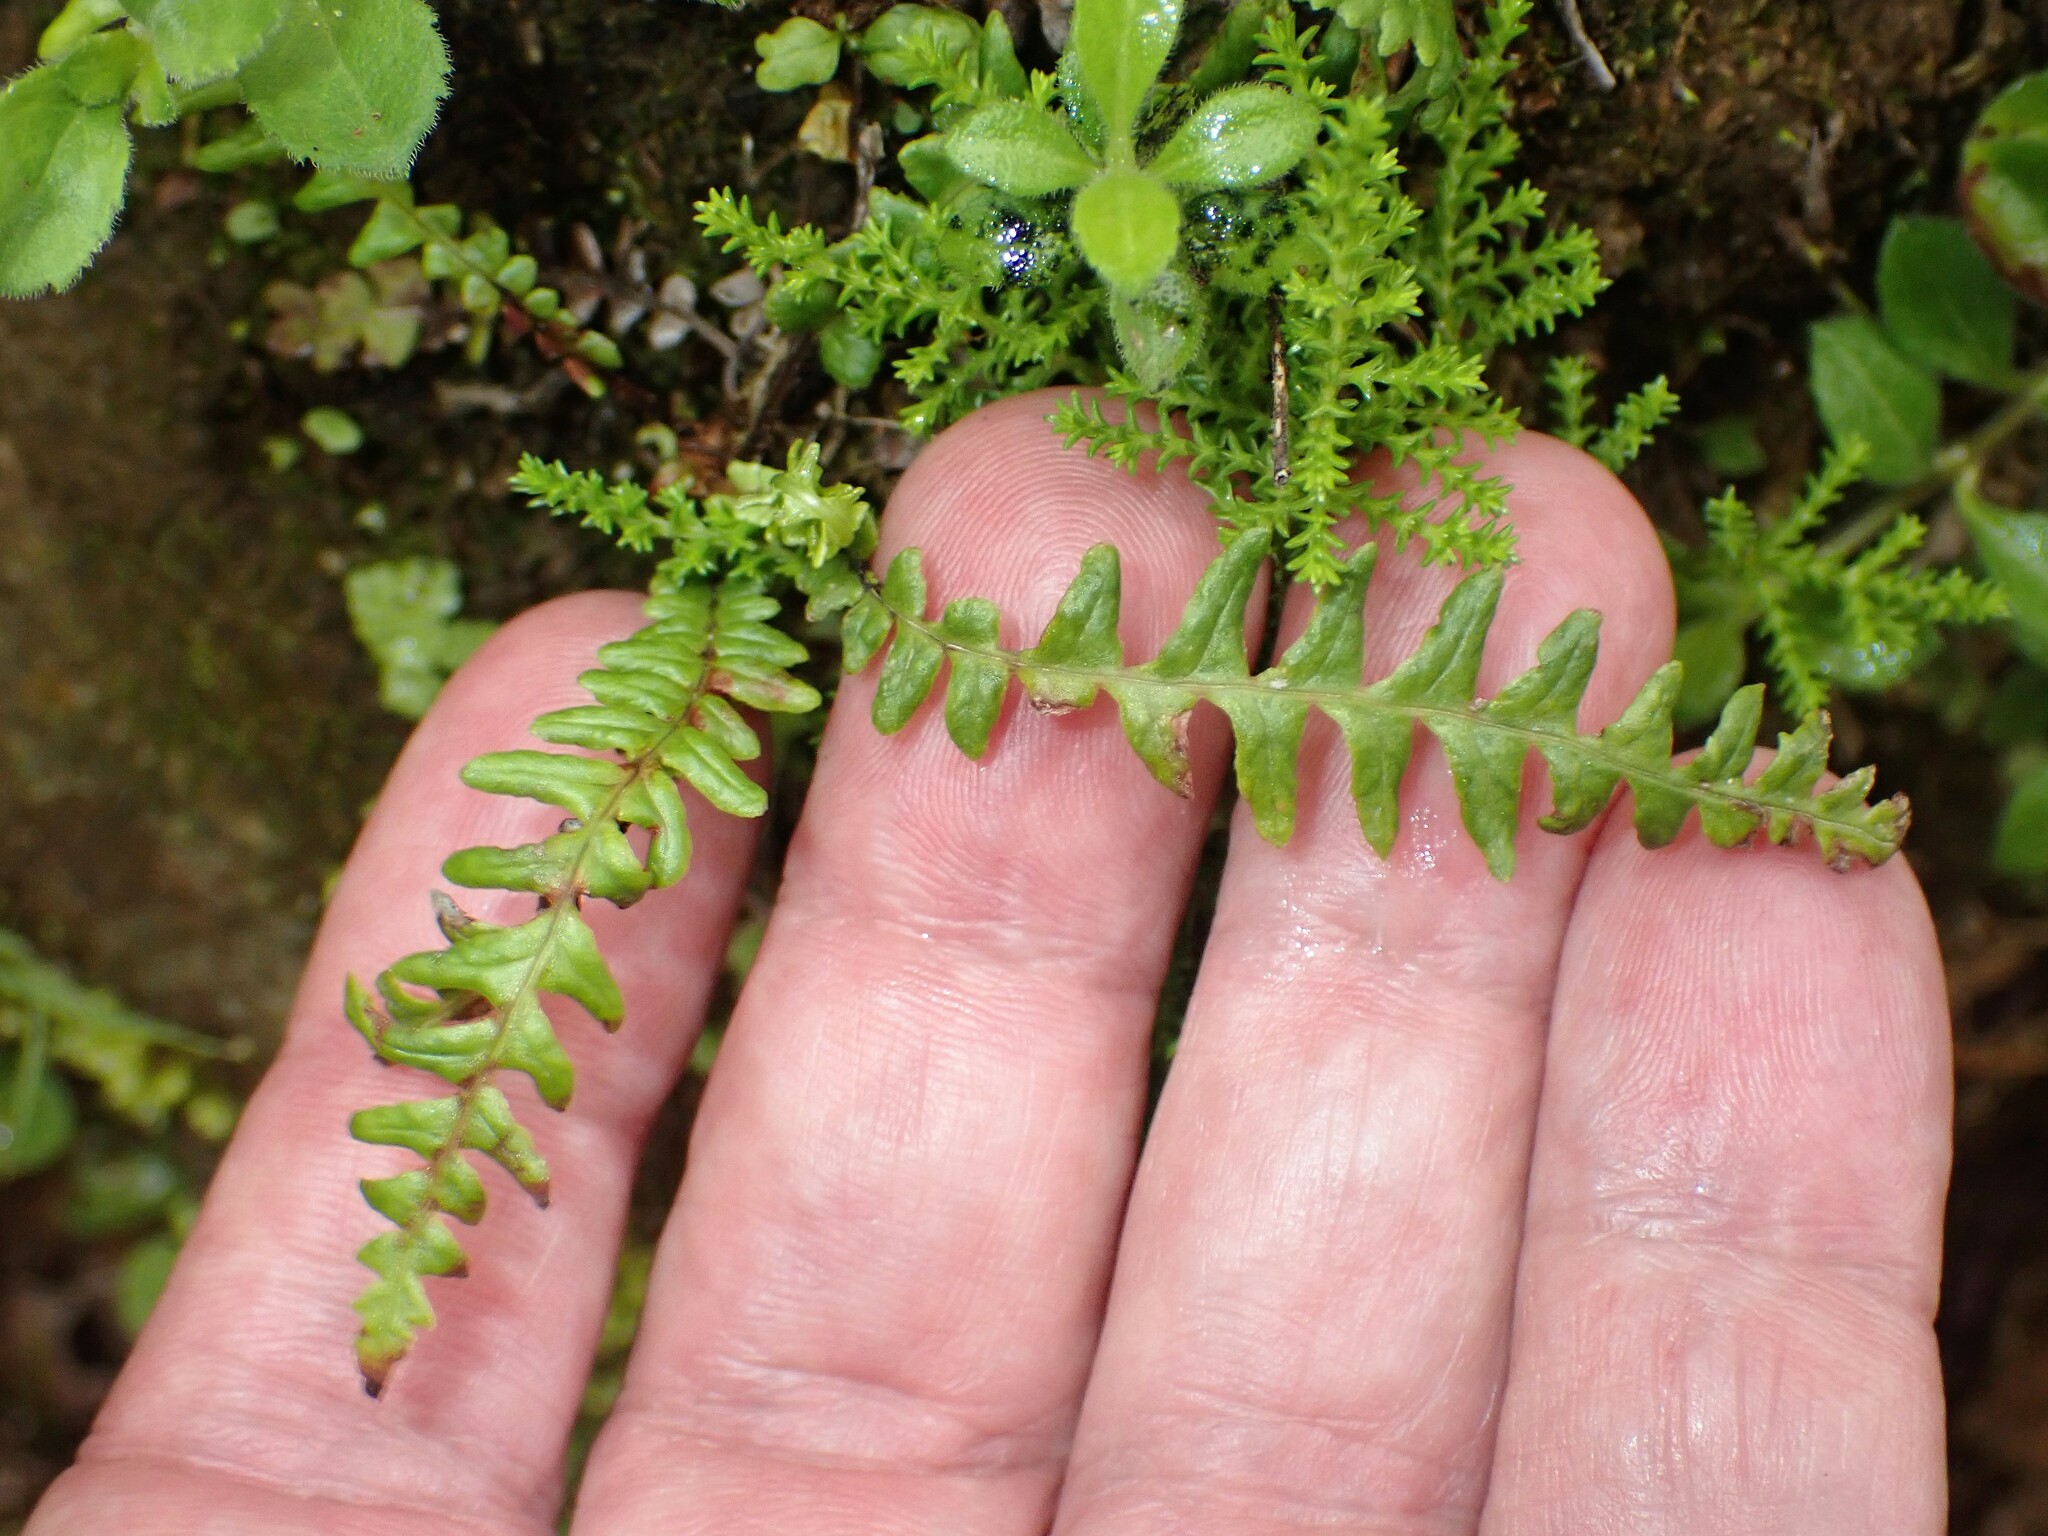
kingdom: Plantae
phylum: Tracheophyta
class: Polypodiopsida
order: Polypodiales
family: Blechnaceae
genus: Struthiopteris
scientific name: Struthiopteris spicant
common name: Deer fern
